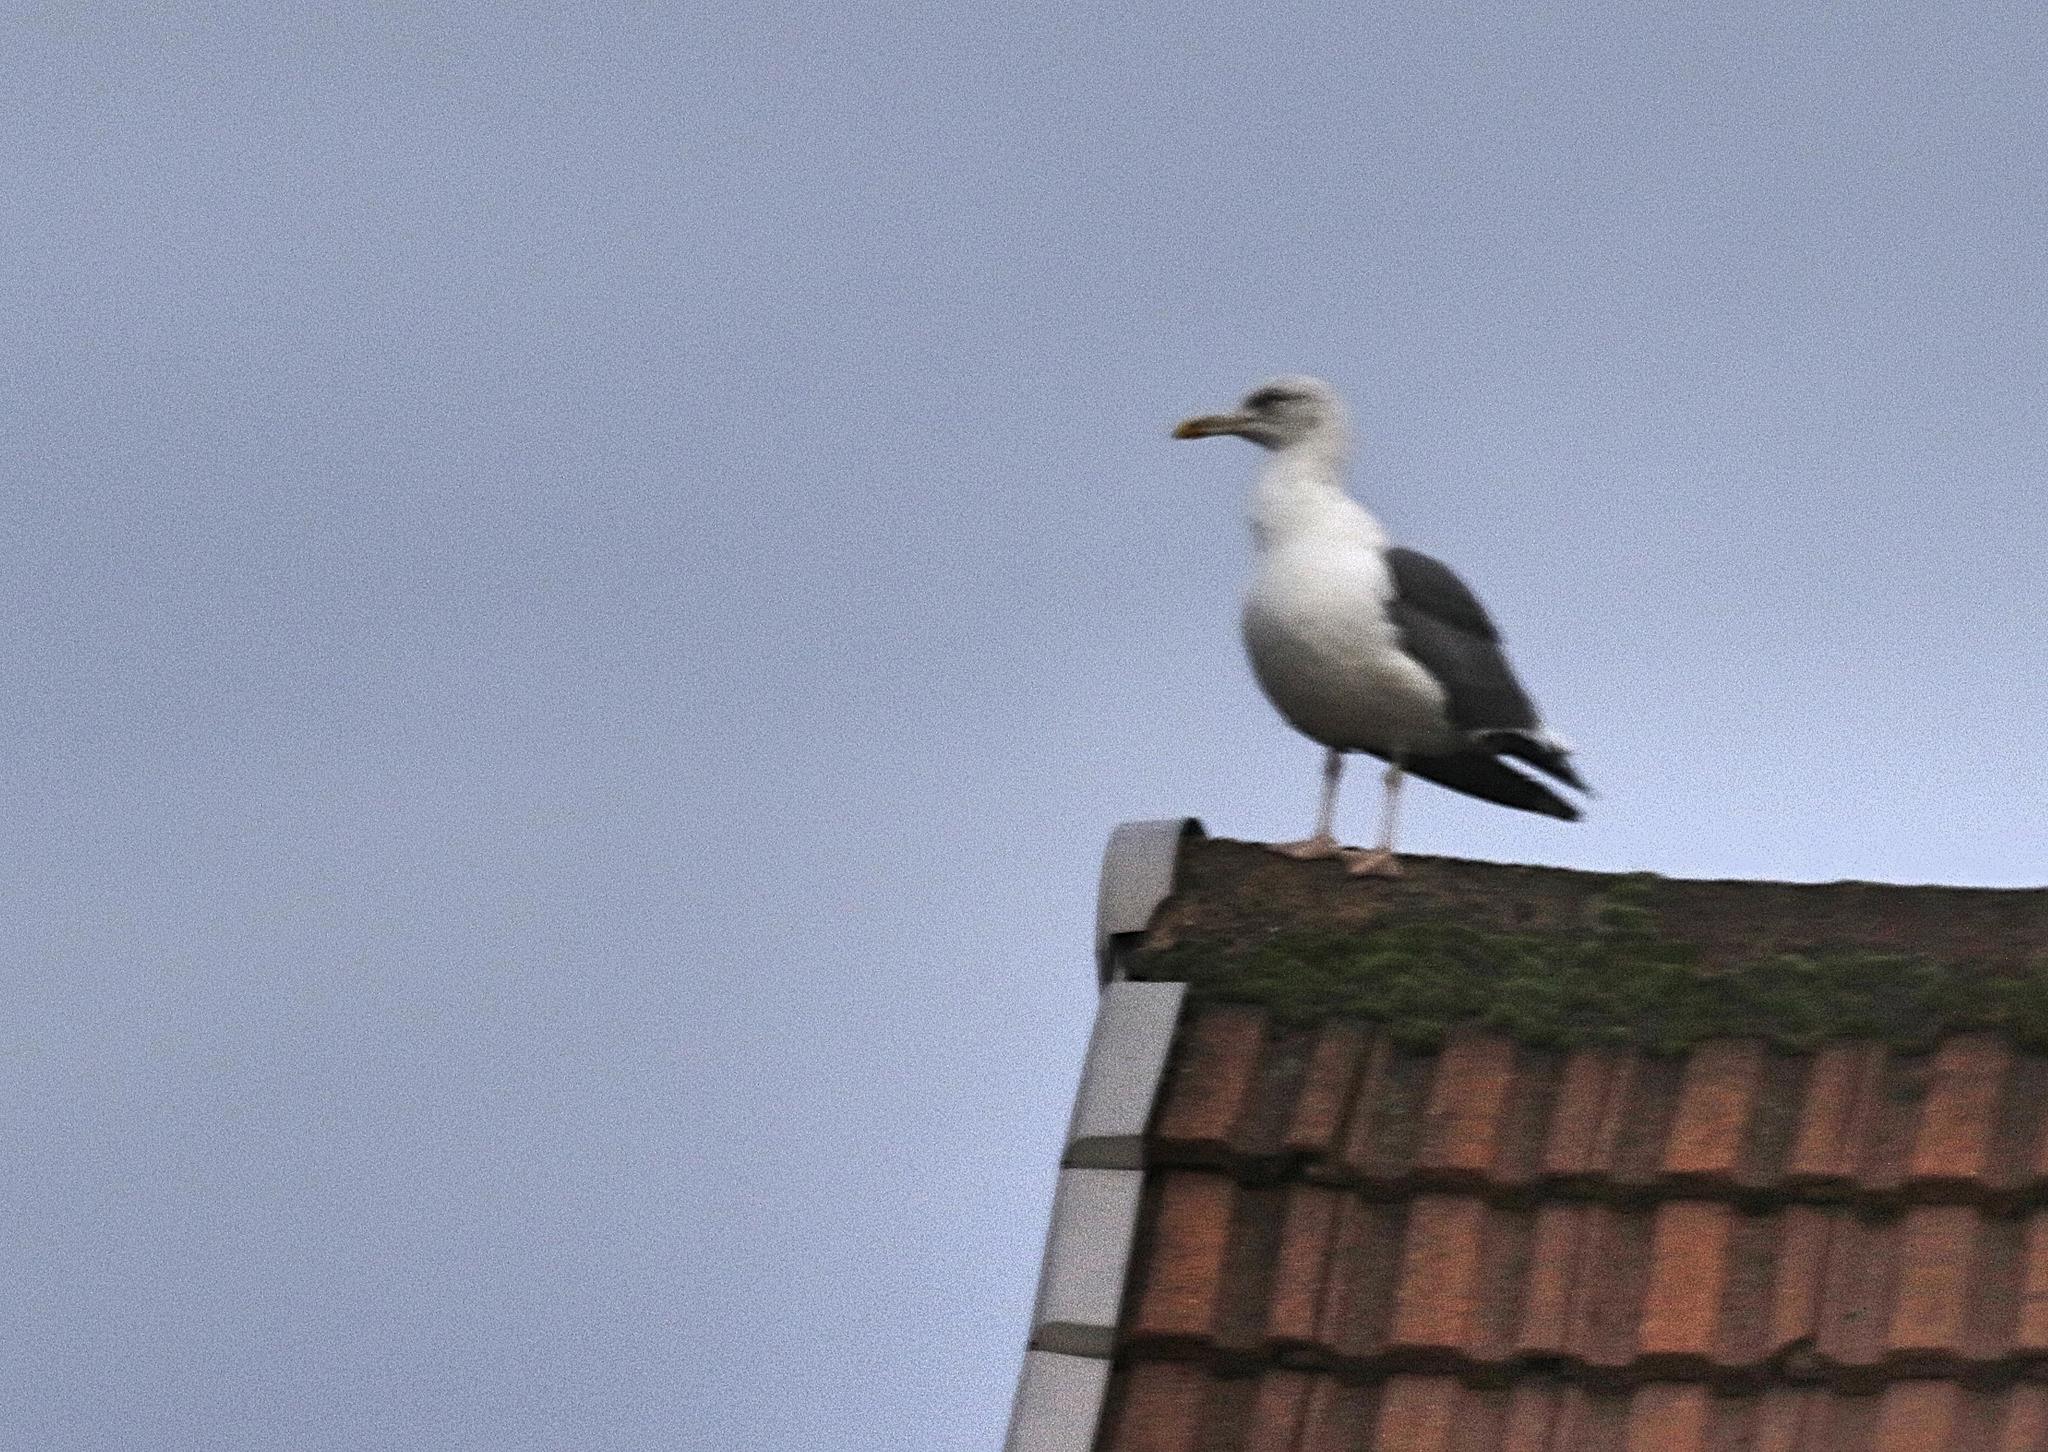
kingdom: Animalia
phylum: Chordata
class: Aves
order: Charadriiformes
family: Laridae
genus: Larus
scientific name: Larus fuscus
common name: Lesser black-backed gull
